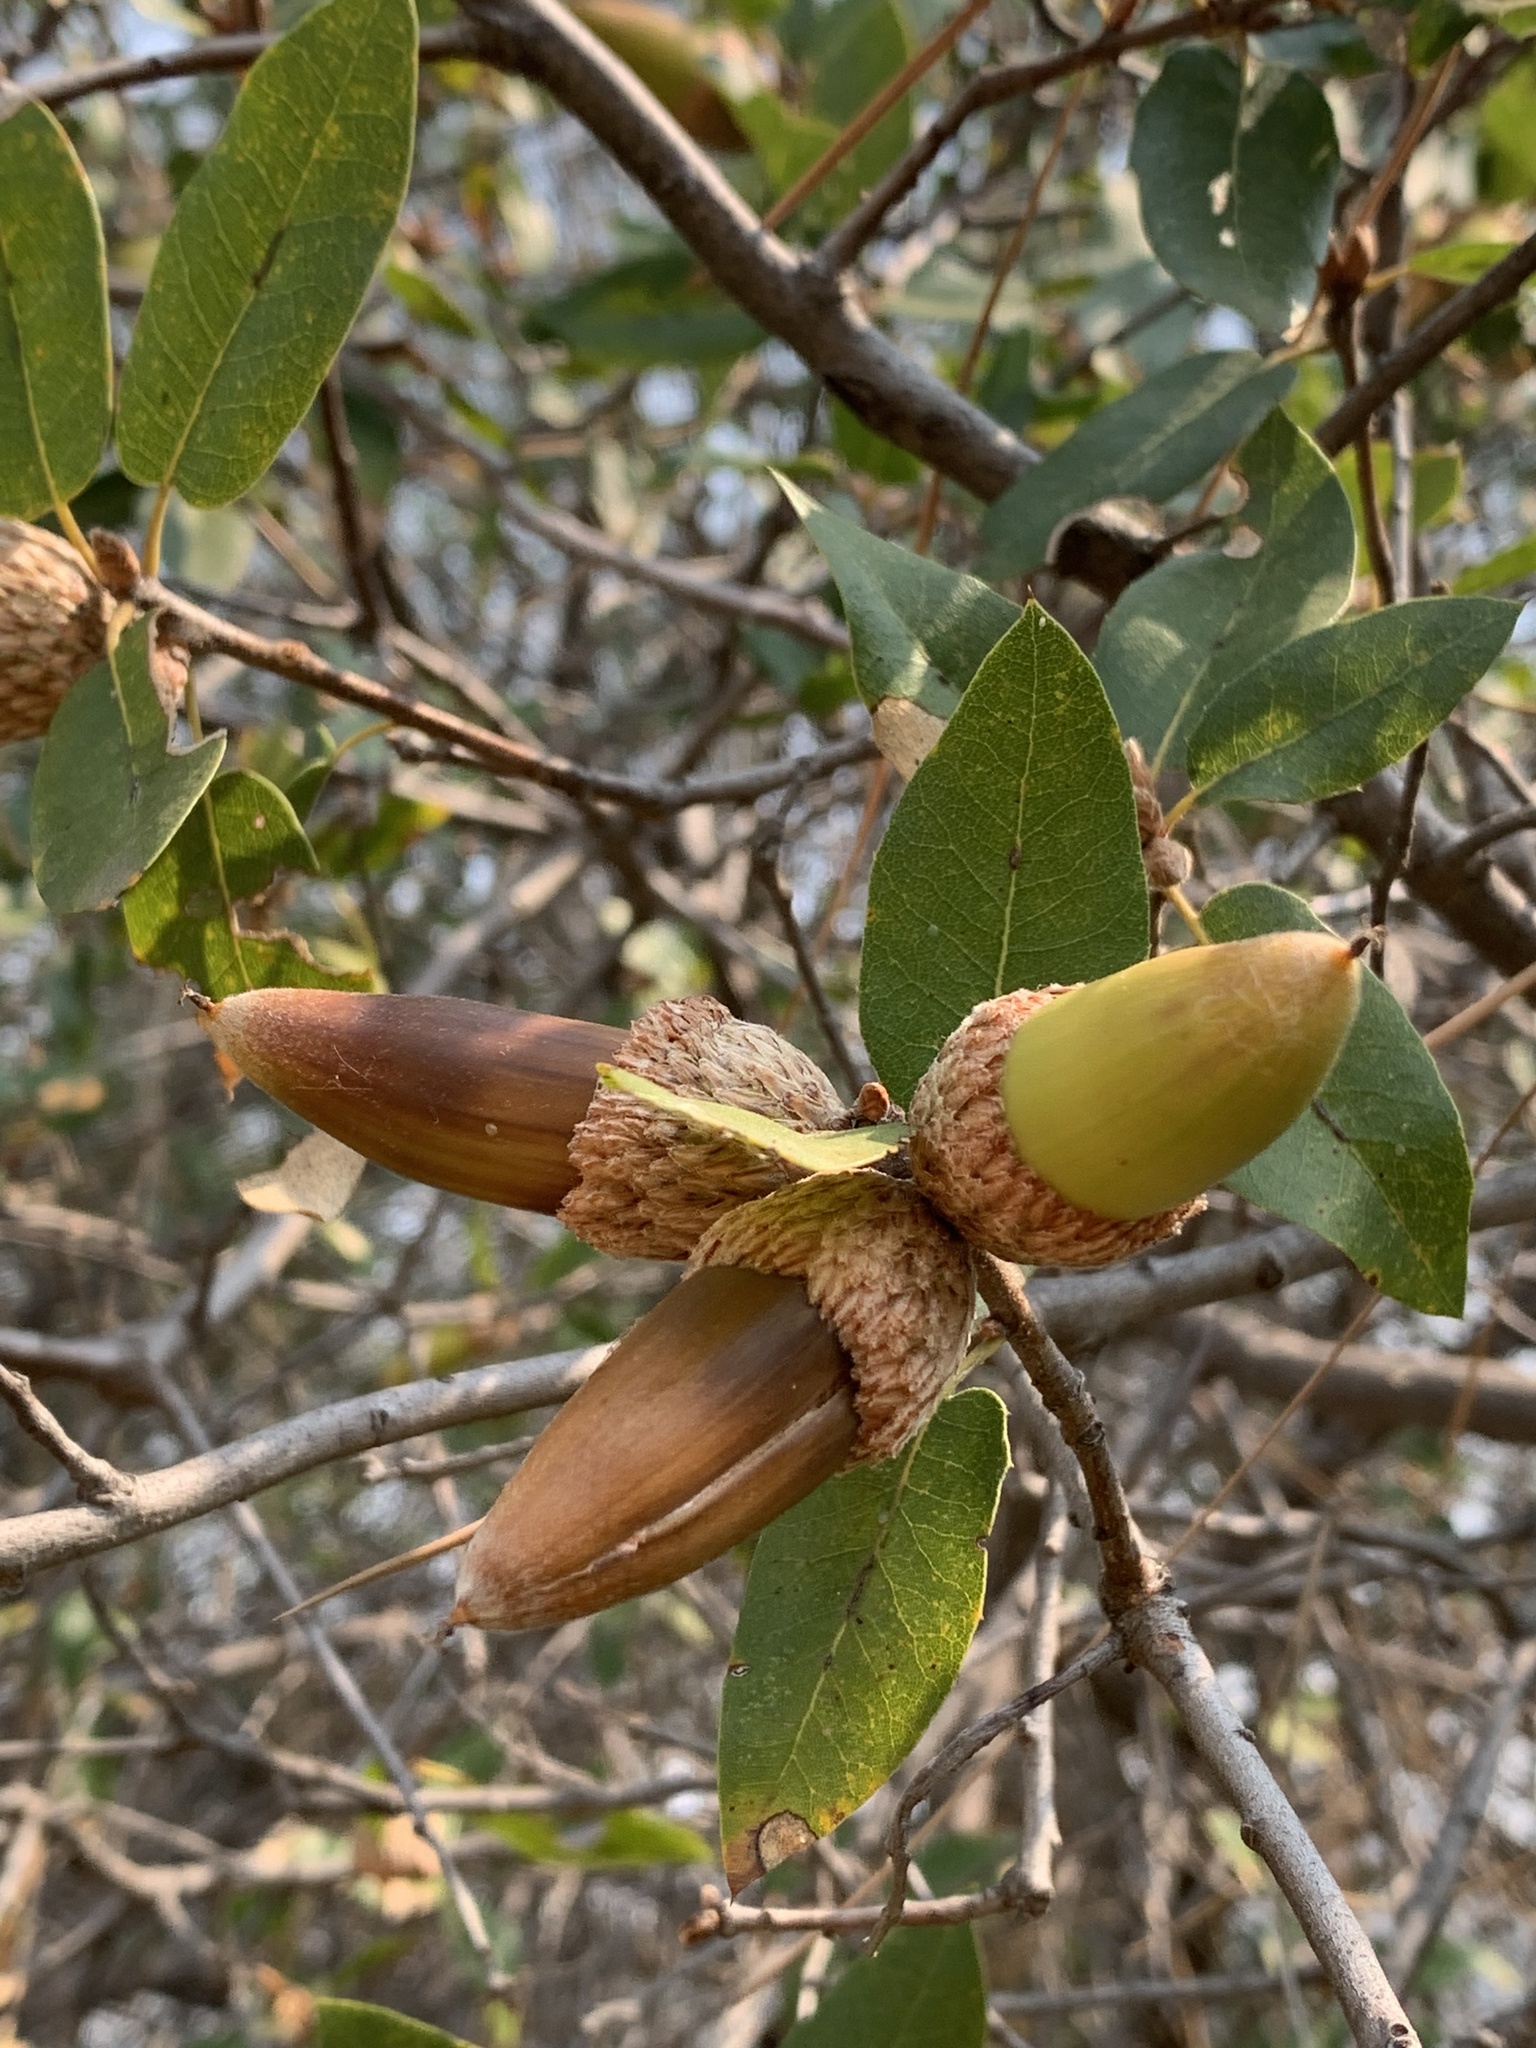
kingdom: Plantae
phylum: Tracheophyta
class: Magnoliopsida
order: Fagales
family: Fagaceae
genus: Quercus
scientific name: Quercus wislizeni
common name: Interior live oak
